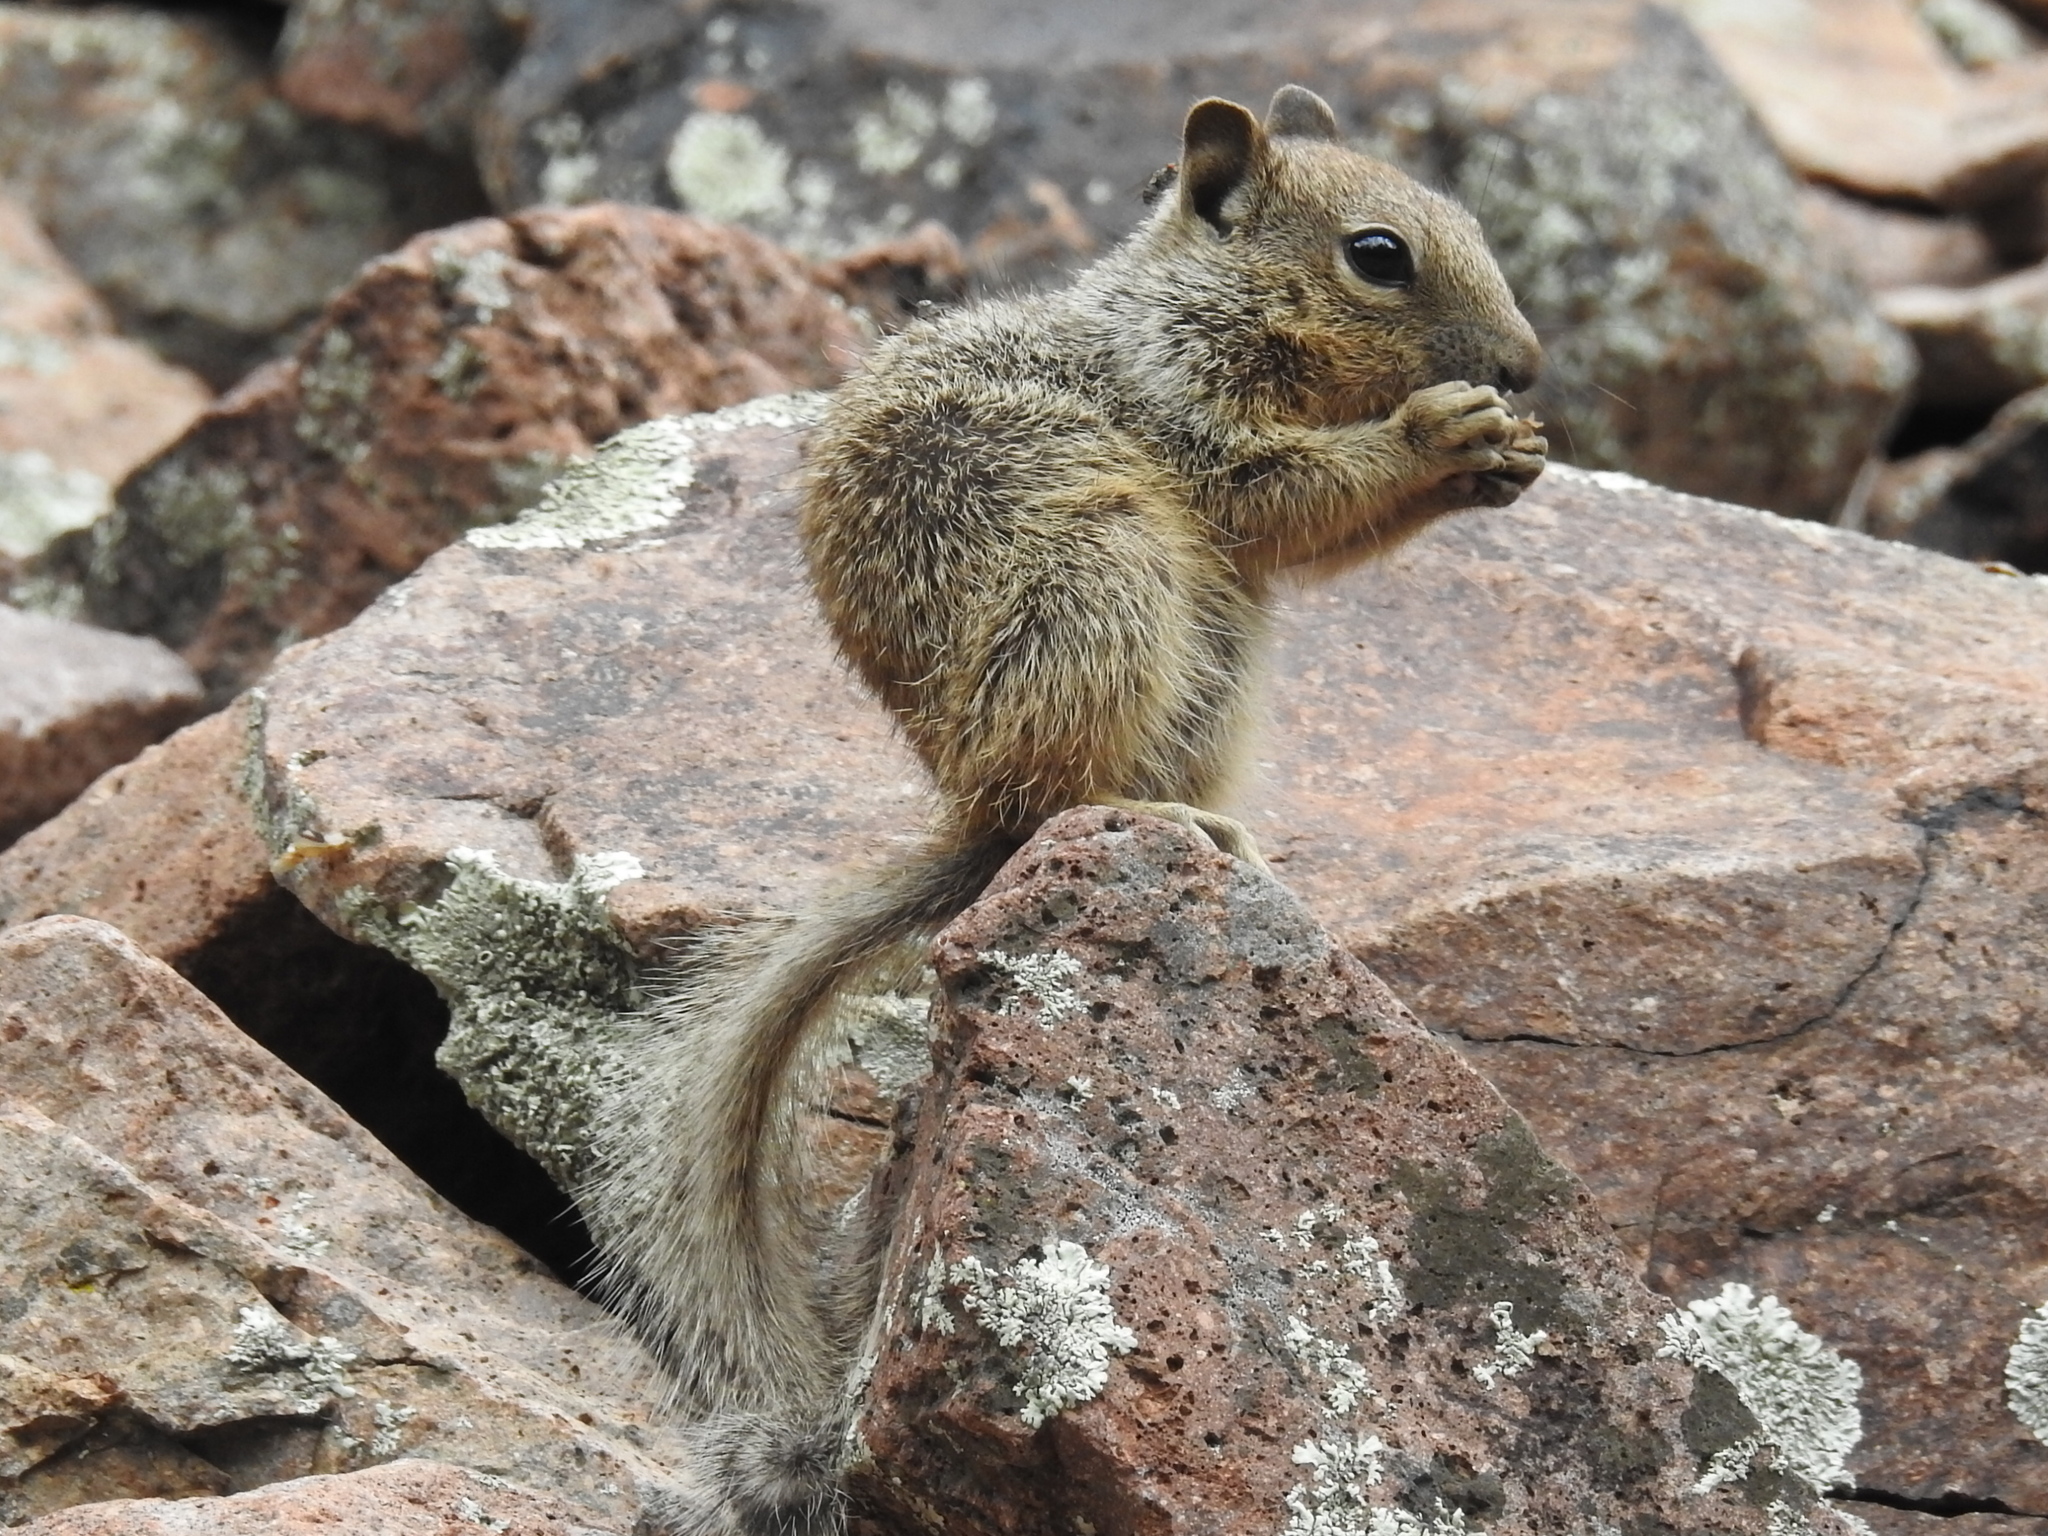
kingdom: Animalia
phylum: Chordata
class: Mammalia
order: Rodentia
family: Sciuridae
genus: Otospermophilus
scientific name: Otospermophilus variegatus
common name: Rock squirrel
